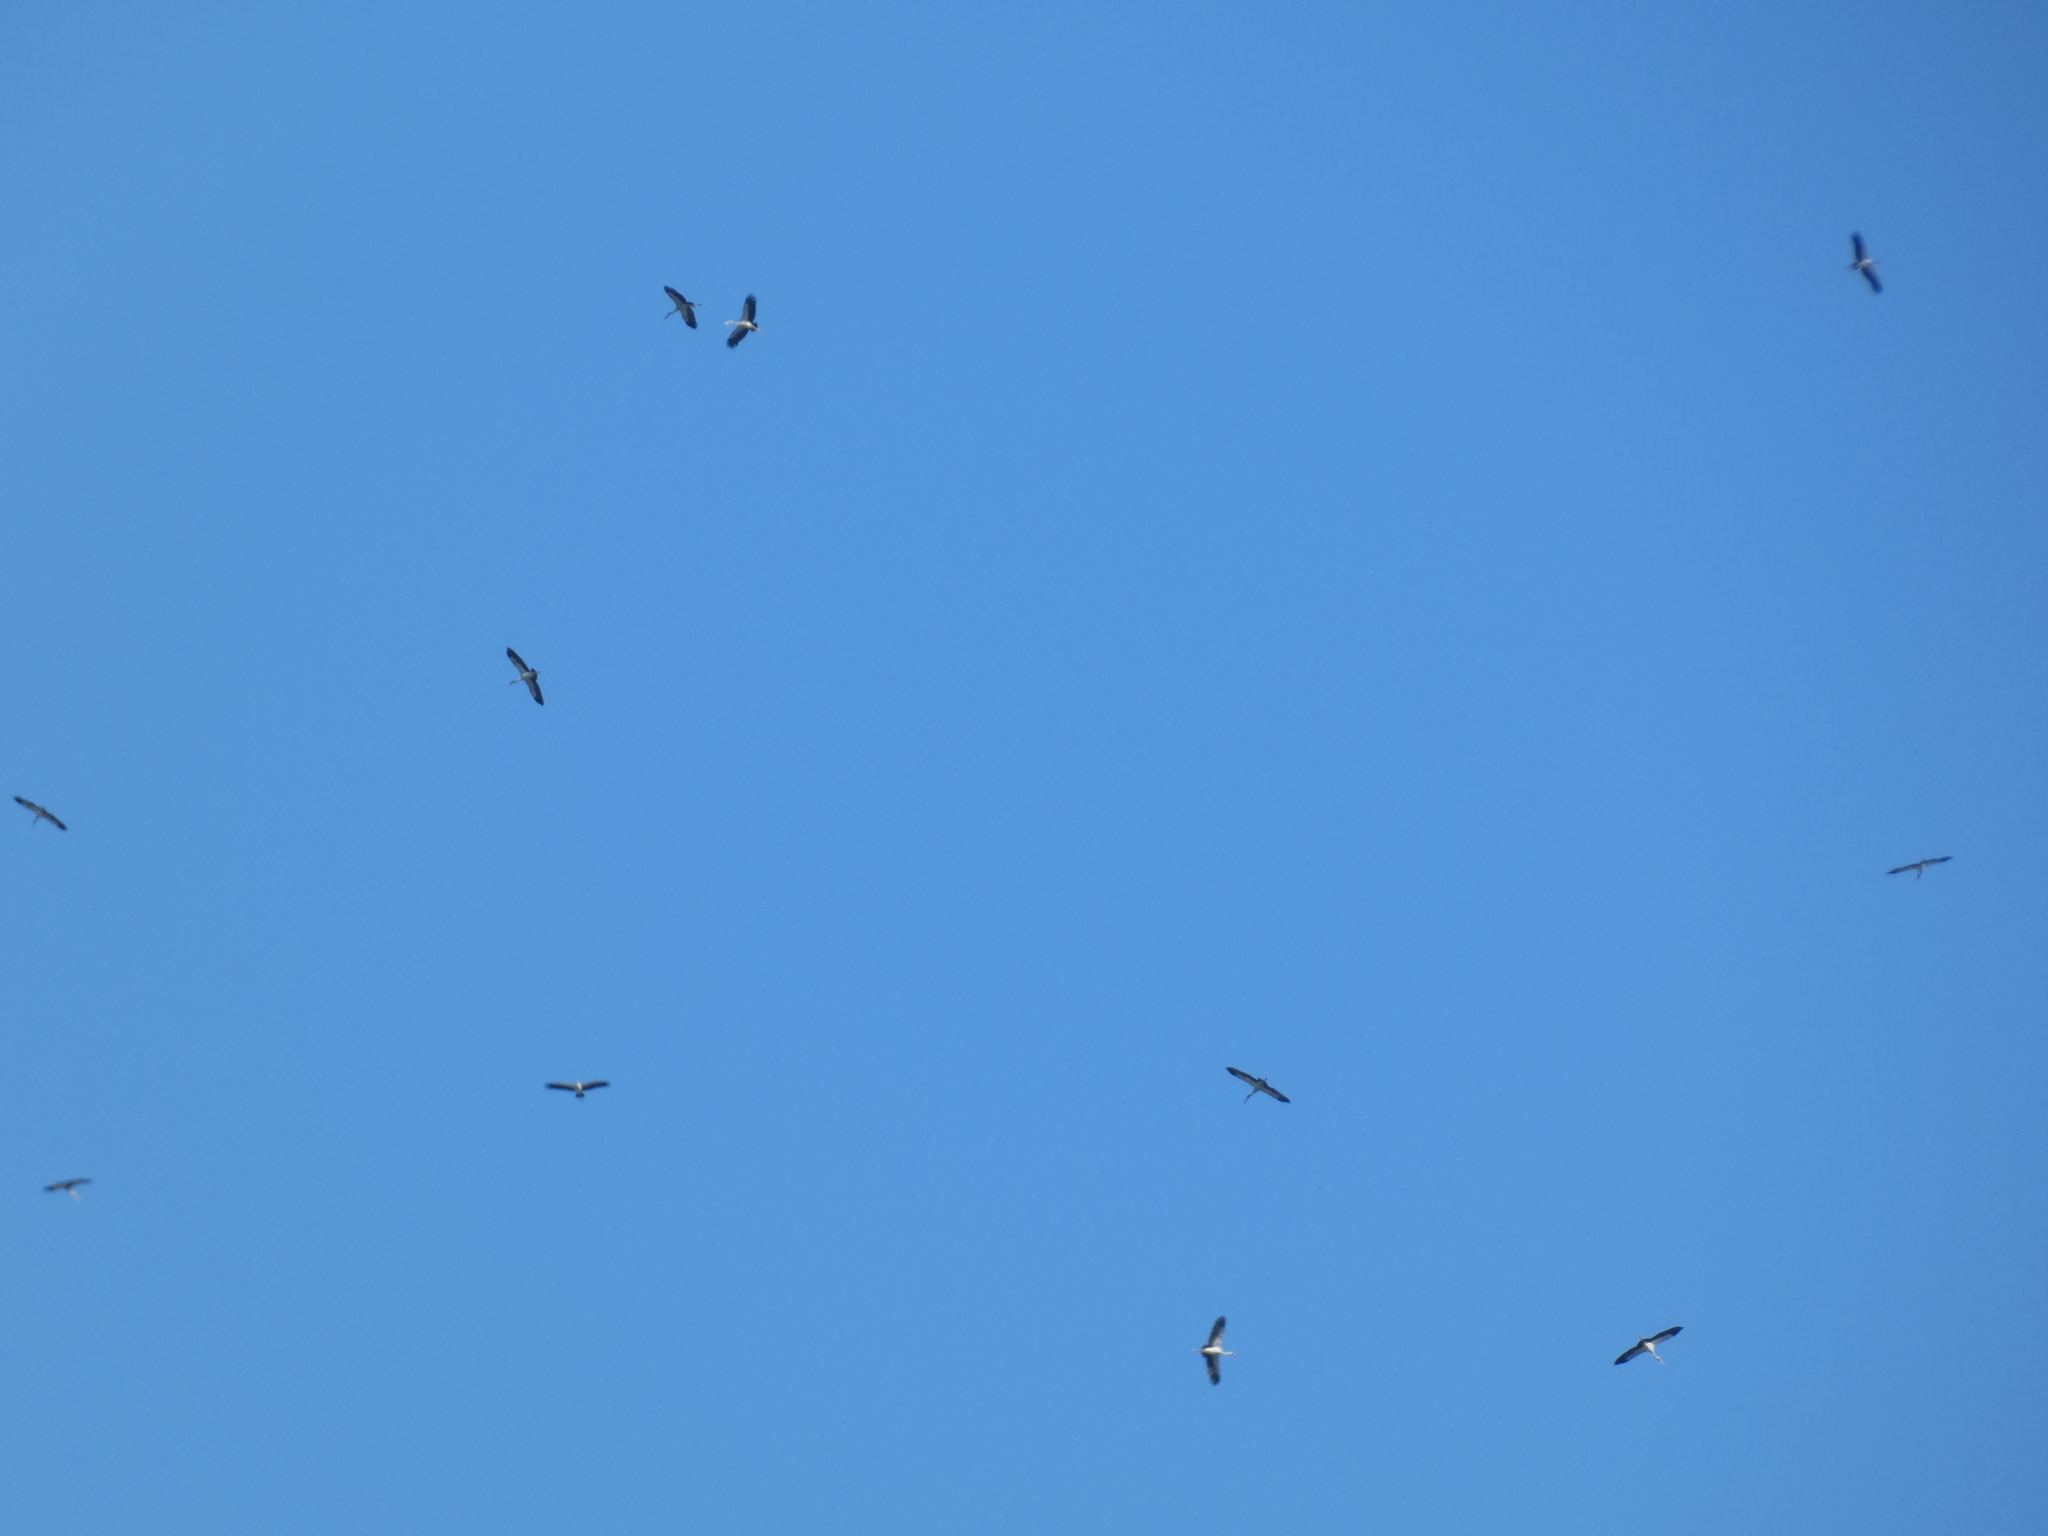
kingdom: Animalia
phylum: Chordata
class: Aves
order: Ciconiiformes
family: Ciconiidae
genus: Anastomus
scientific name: Anastomus oscitans
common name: Asian openbill
